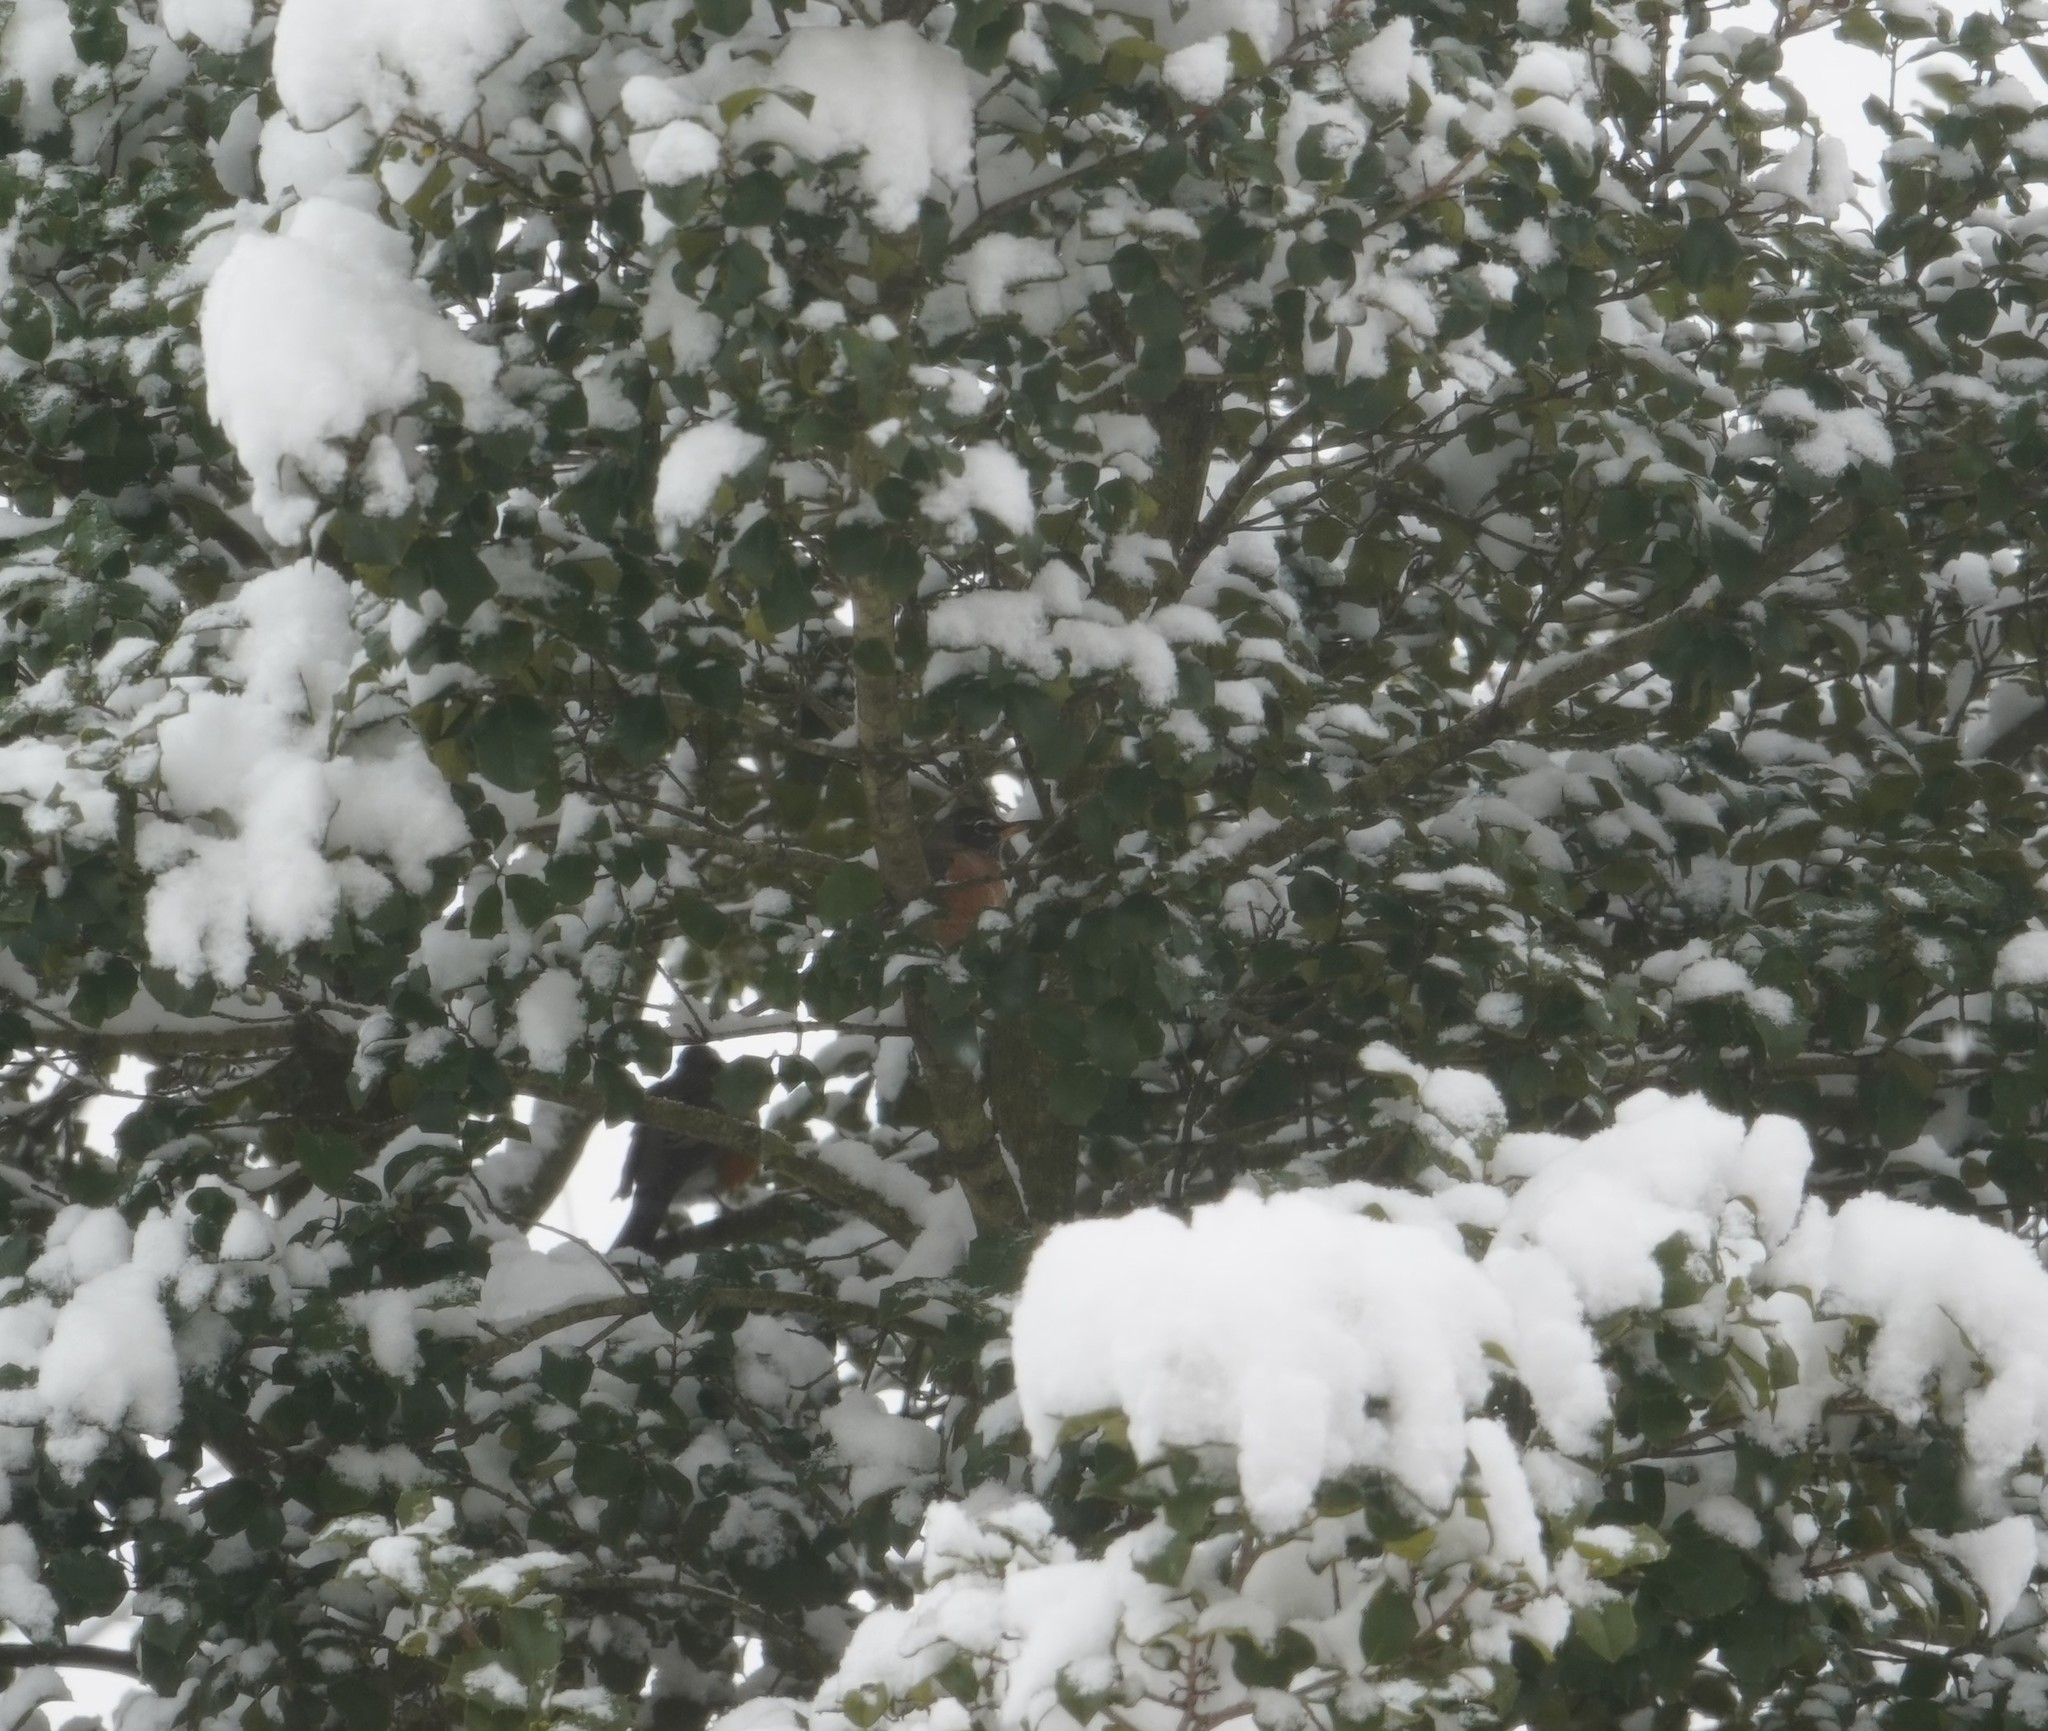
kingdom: Animalia
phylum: Chordata
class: Aves
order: Passeriformes
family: Turdidae
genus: Turdus
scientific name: Turdus migratorius
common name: American robin
